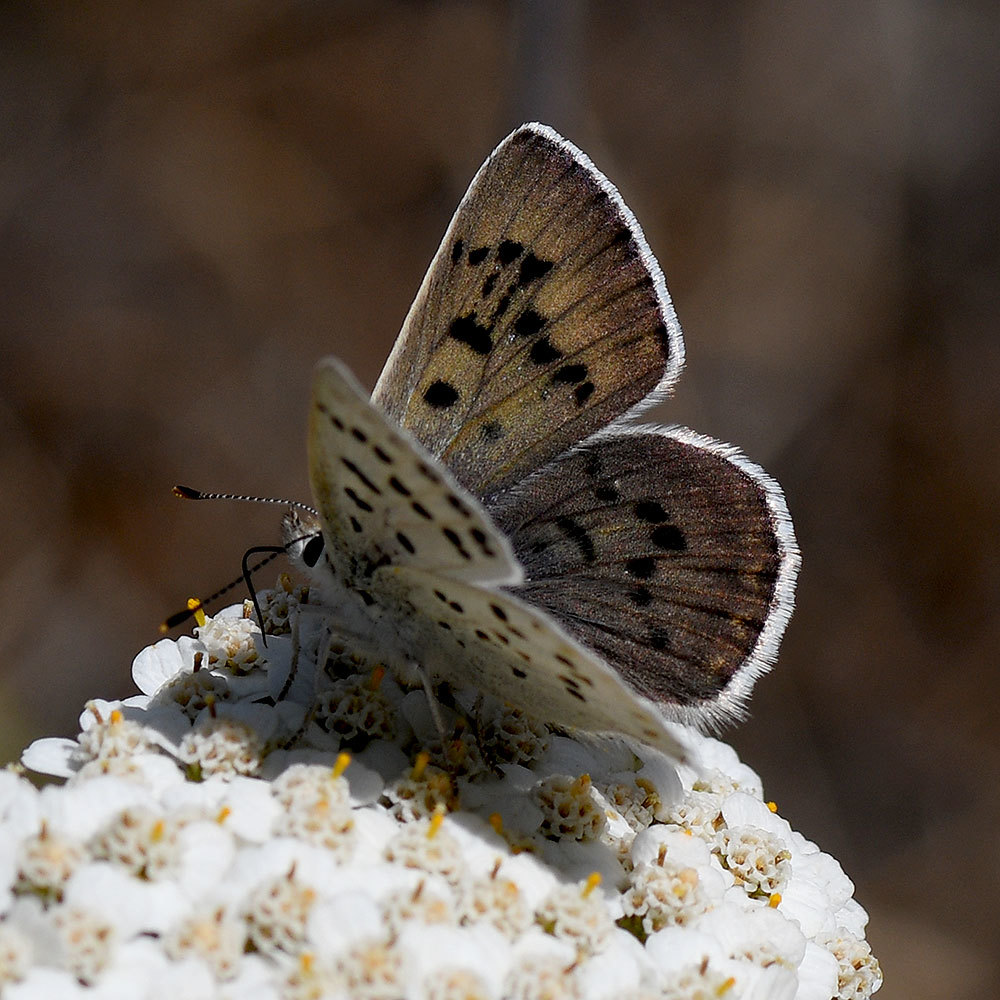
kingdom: Animalia
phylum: Arthropoda
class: Insecta
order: Lepidoptera
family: Lycaenidae
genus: Tharsalea
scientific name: Tharsalea heteronea
